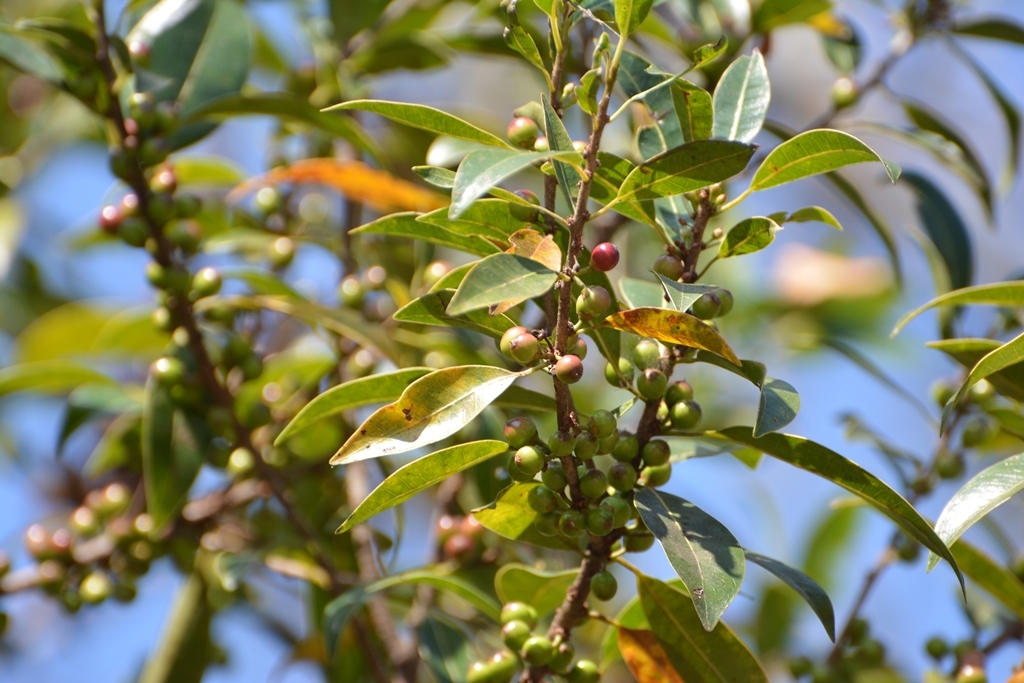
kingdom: Plantae
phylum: Tracheophyta
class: Magnoliopsida
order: Lamiales
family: Oleaceae
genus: Forestiera
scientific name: Forestiera rhamnifolia
